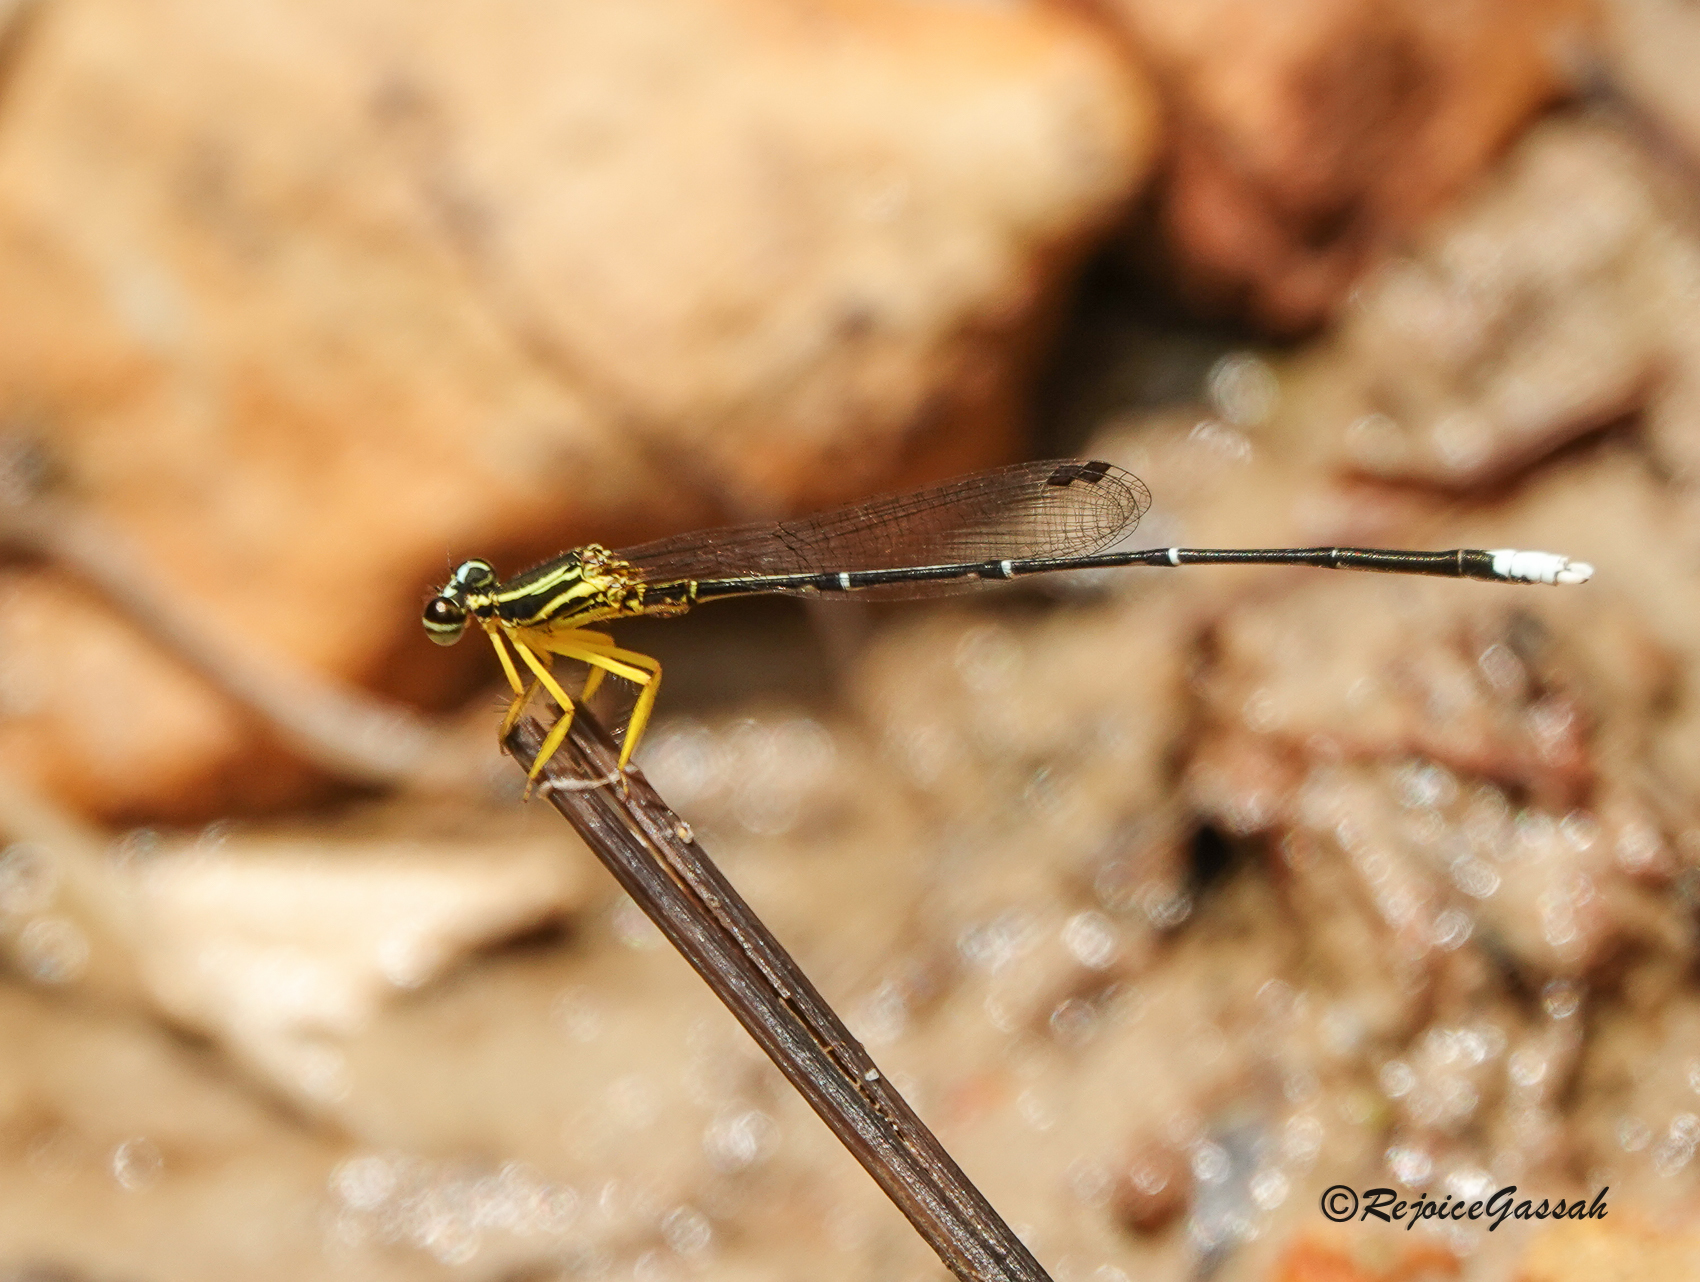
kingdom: Animalia
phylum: Arthropoda
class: Insecta
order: Odonata
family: Platycnemididae
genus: Copera
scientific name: Copera marginipes
